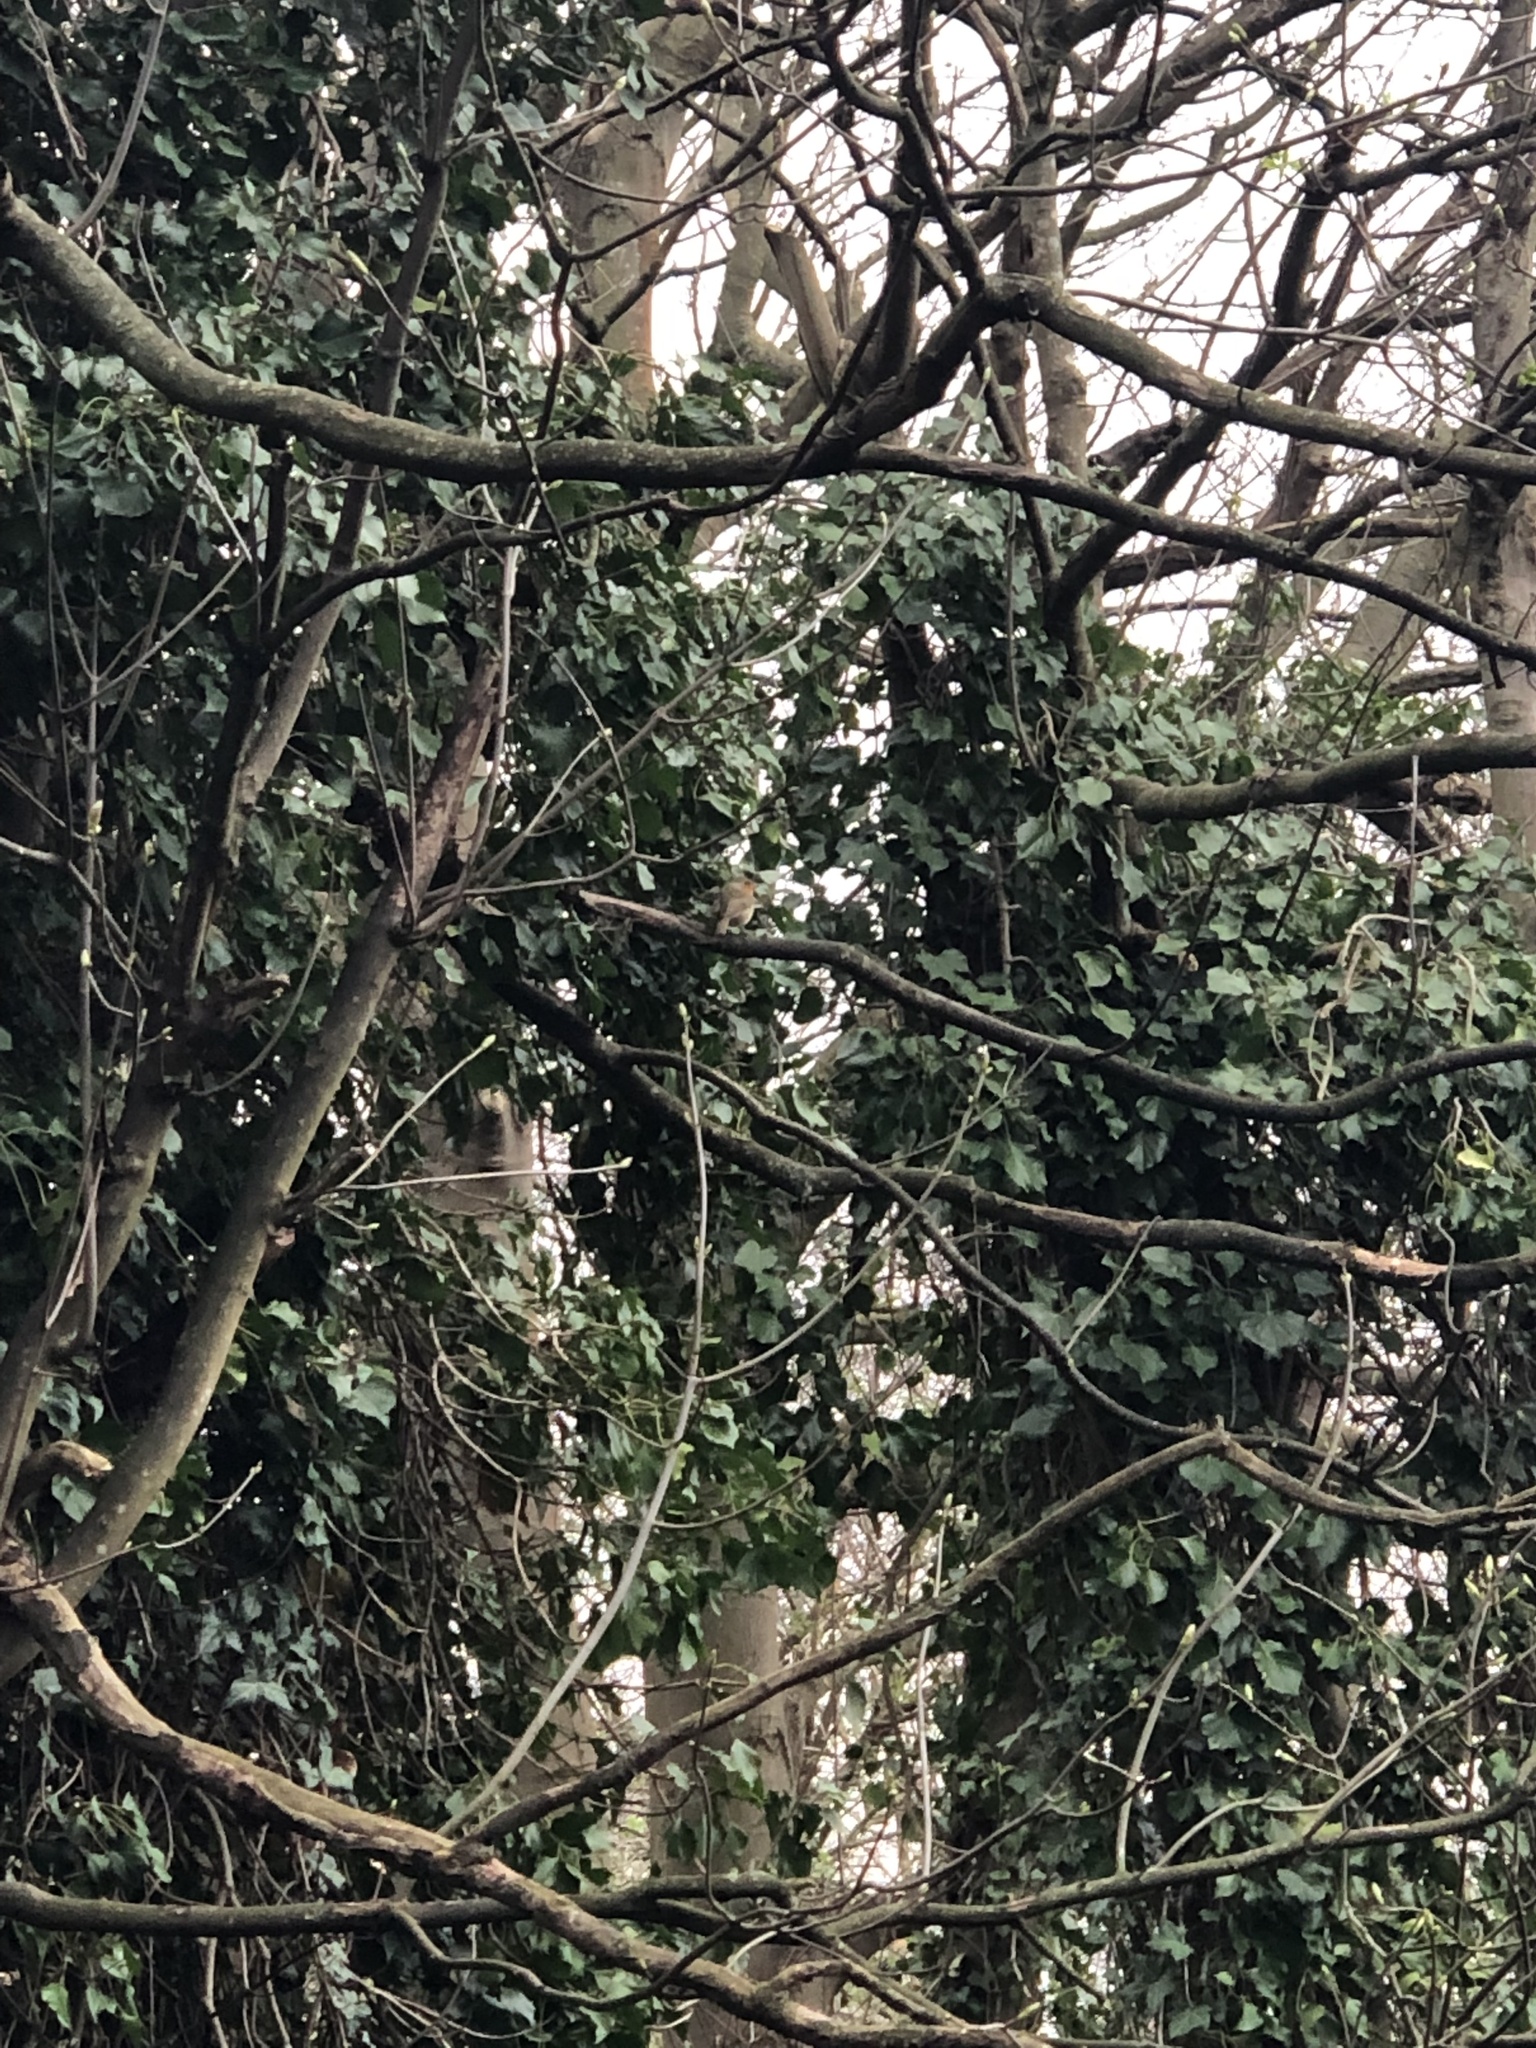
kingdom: Animalia
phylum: Chordata
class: Aves
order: Passeriformes
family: Muscicapidae
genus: Erithacus
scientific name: Erithacus rubecula
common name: European robin
